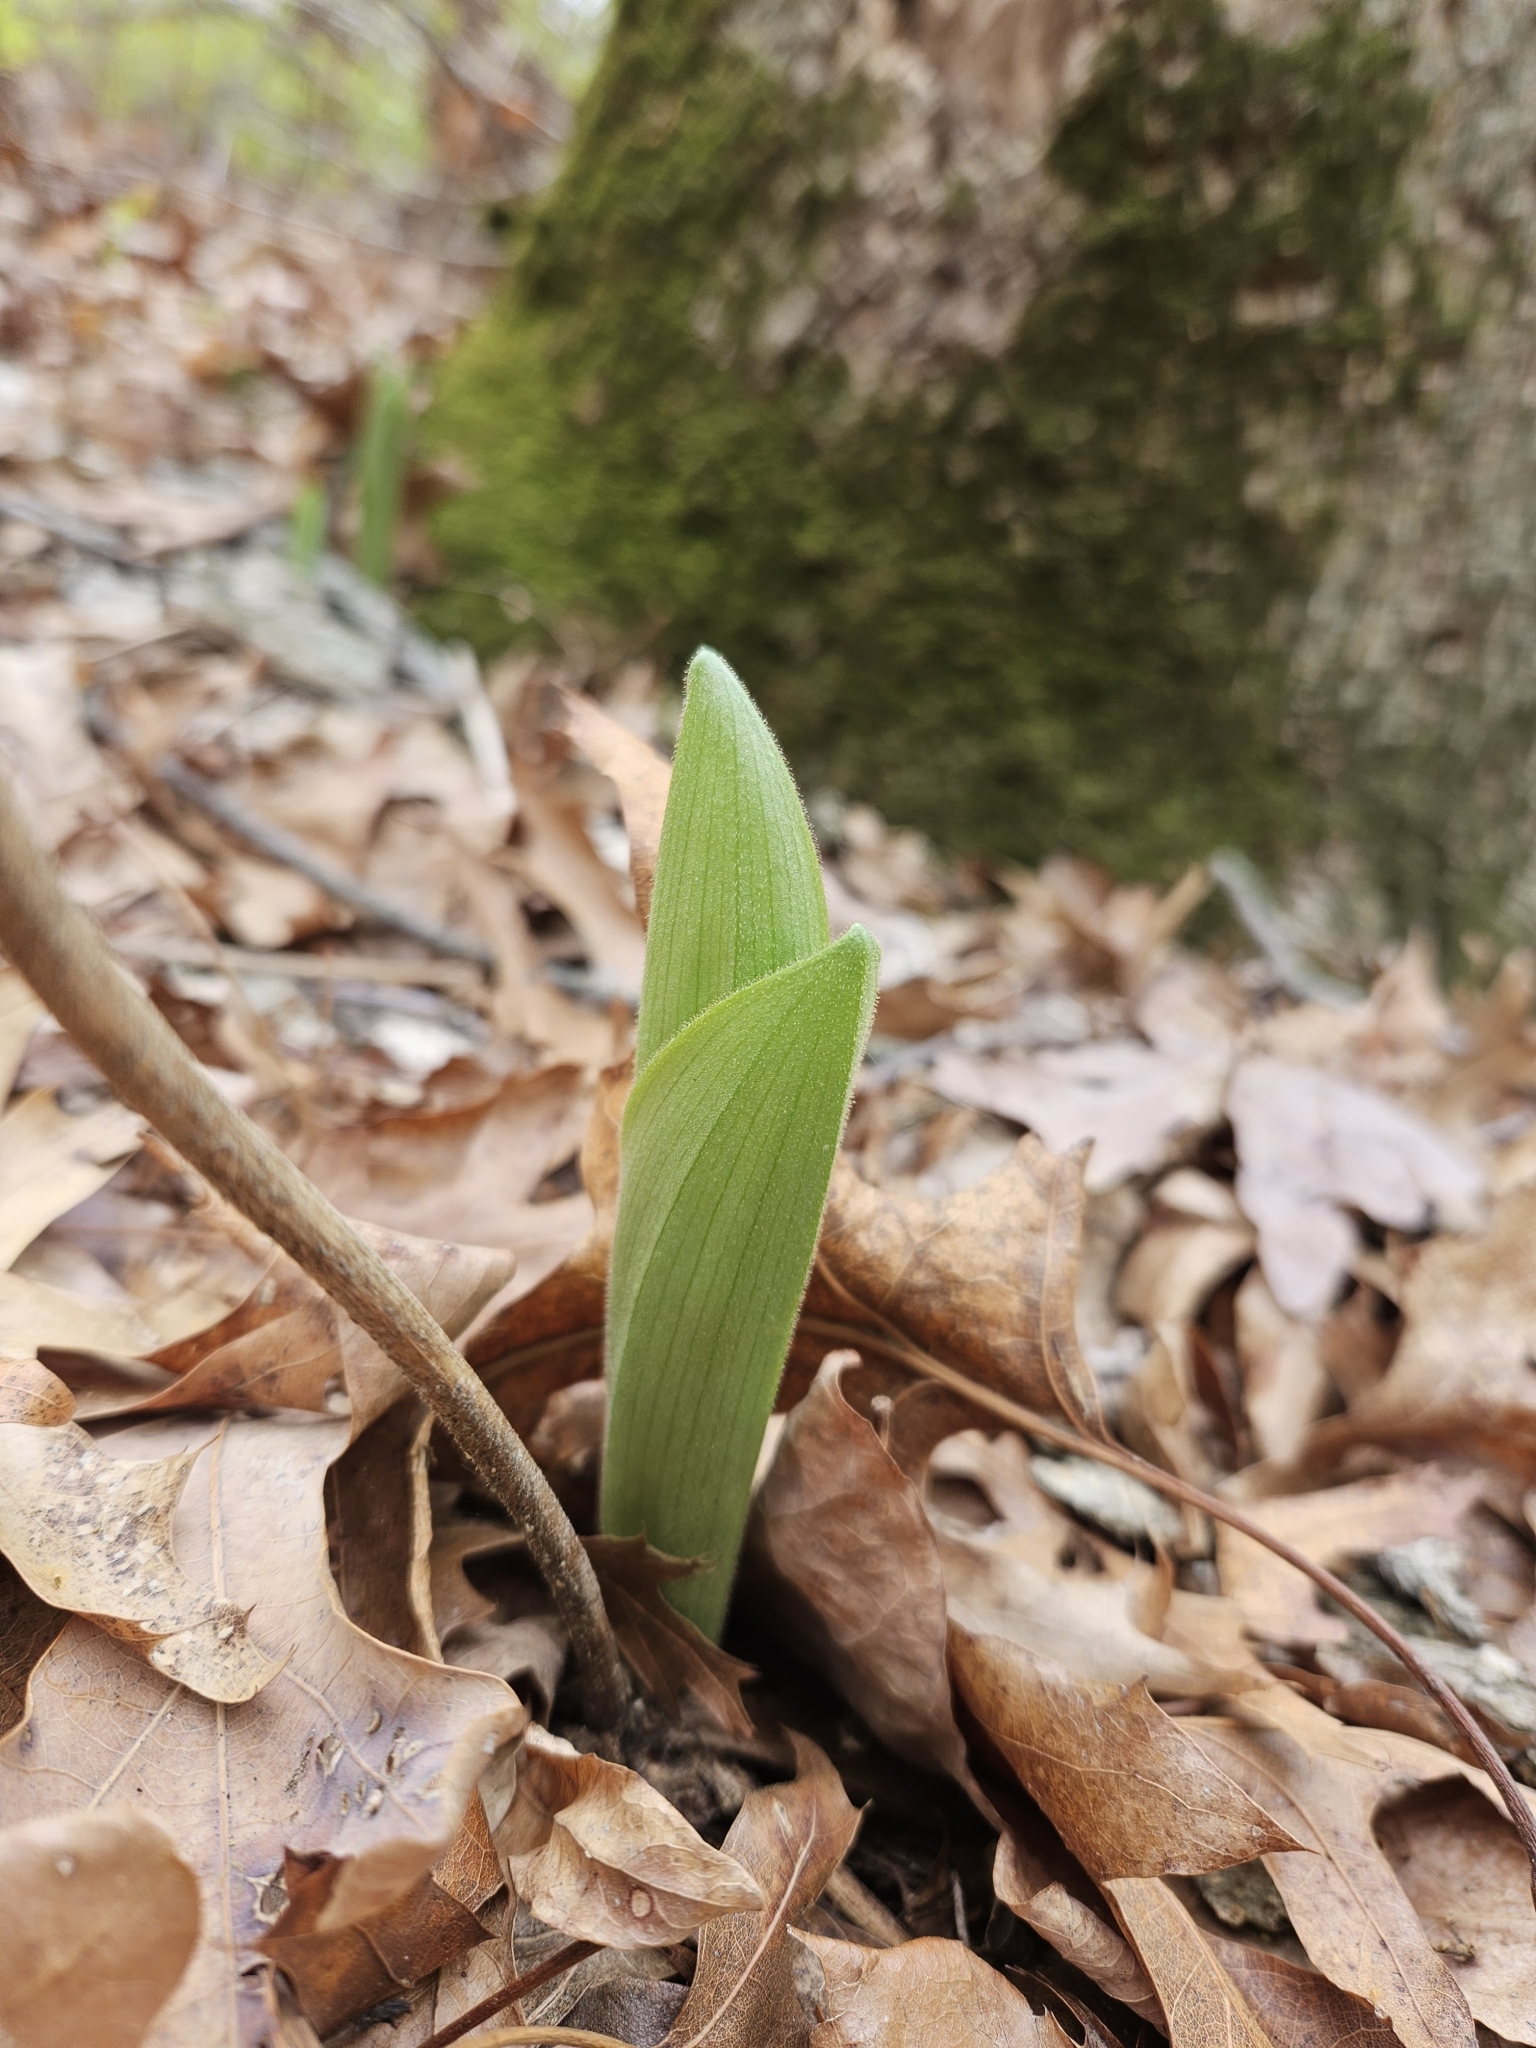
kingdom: Plantae
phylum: Tracheophyta
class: Liliopsida
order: Asparagales
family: Orchidaceae
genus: Cypripedium
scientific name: Cypripedium acaule
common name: Pink lady's-slipper
